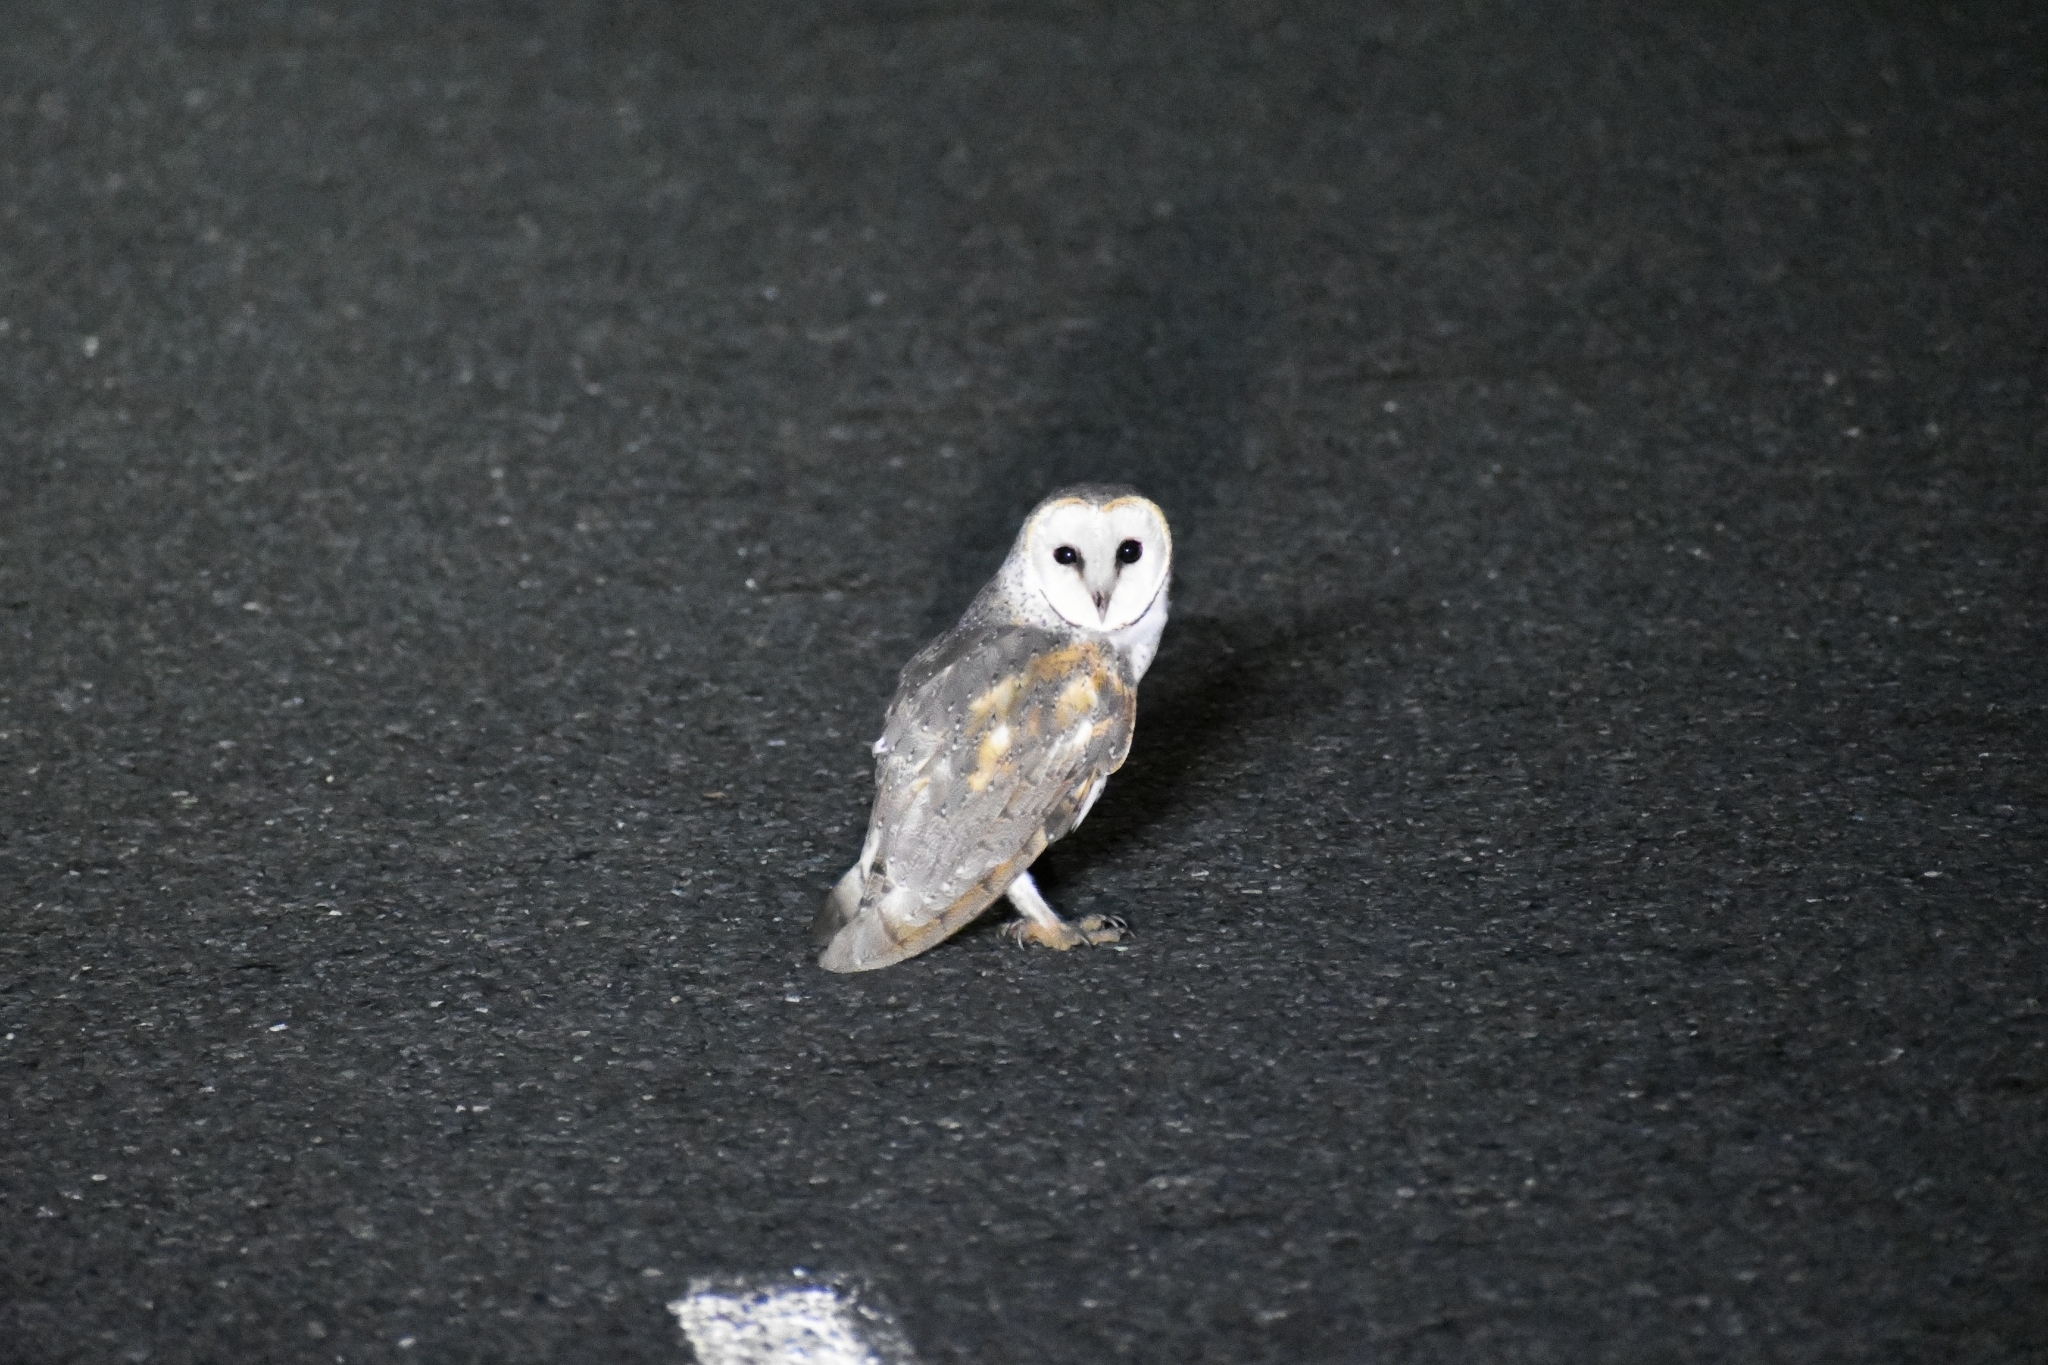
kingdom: Animalia
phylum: Chordata
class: Aves
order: Strigiformes
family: Tytonidae
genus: Tyto
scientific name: Tyto alba
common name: Barn owl
